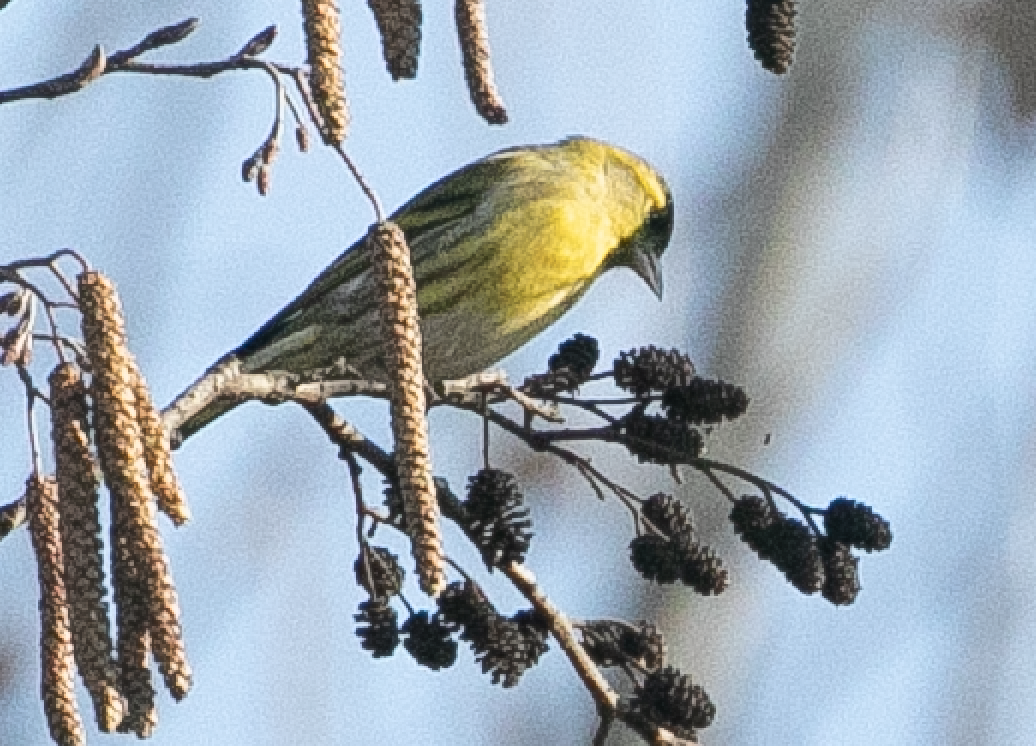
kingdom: Animalia
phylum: Chordata
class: Aves
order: Passeriformes
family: Fringillidae
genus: Spinus
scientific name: Spinus spinus
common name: Eurasian siskin
